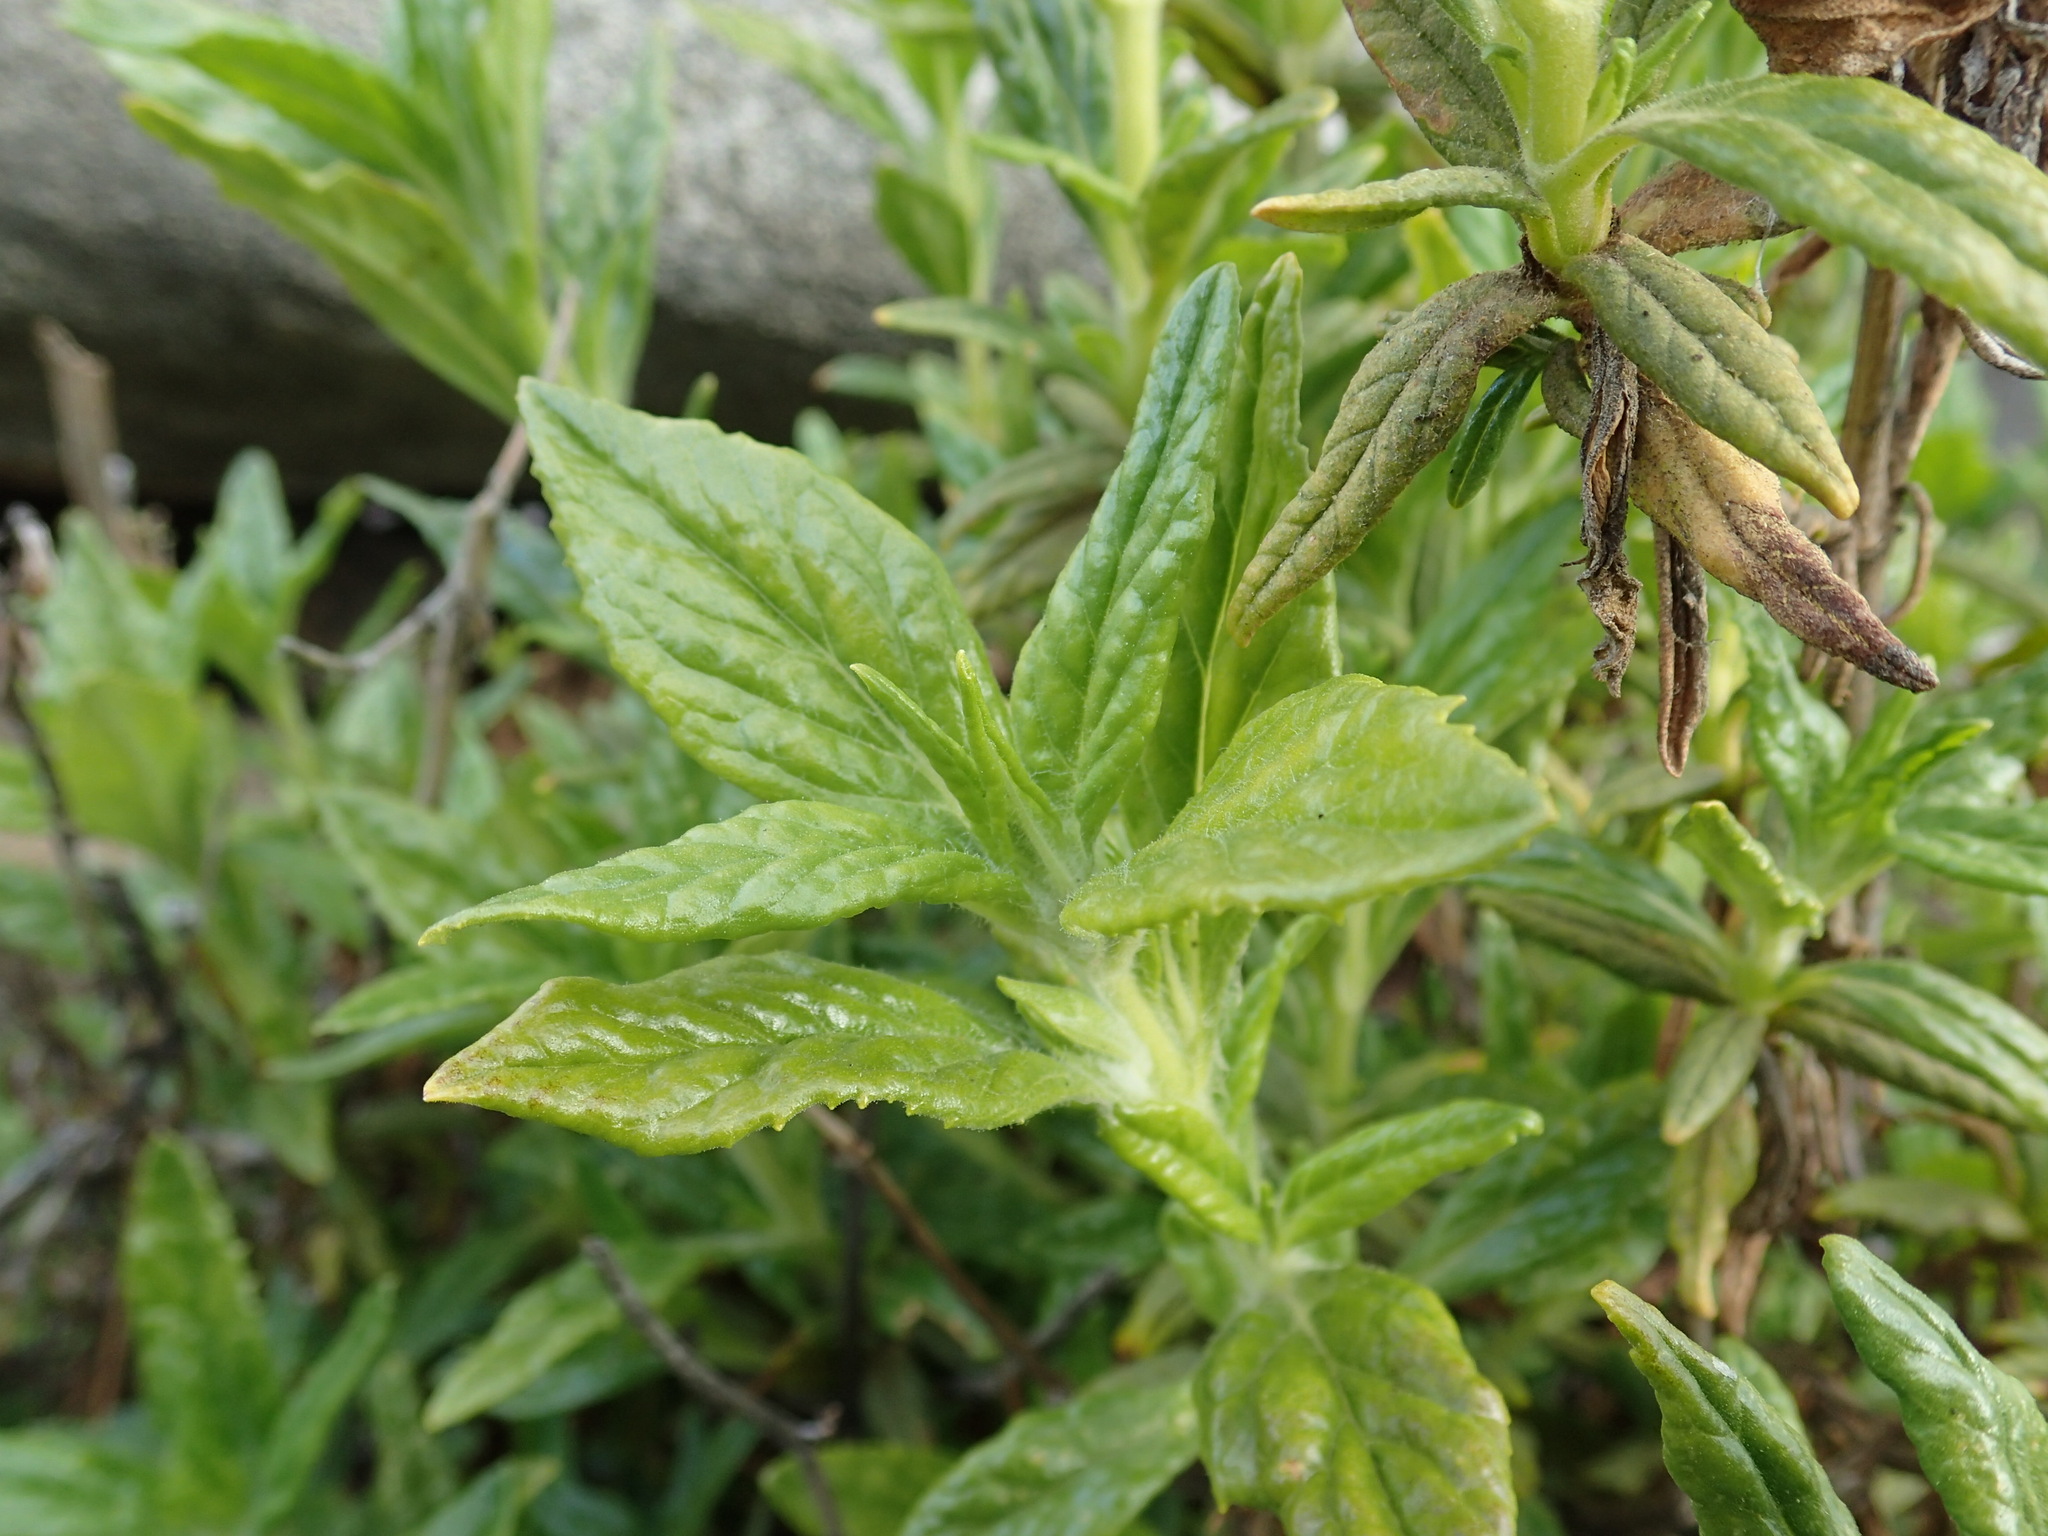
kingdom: Plantae
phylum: Tracheophyta
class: Magnoliopsida
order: Lamiales
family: Phrymaceae
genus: Diplacus
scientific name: Diplacus calycinus
